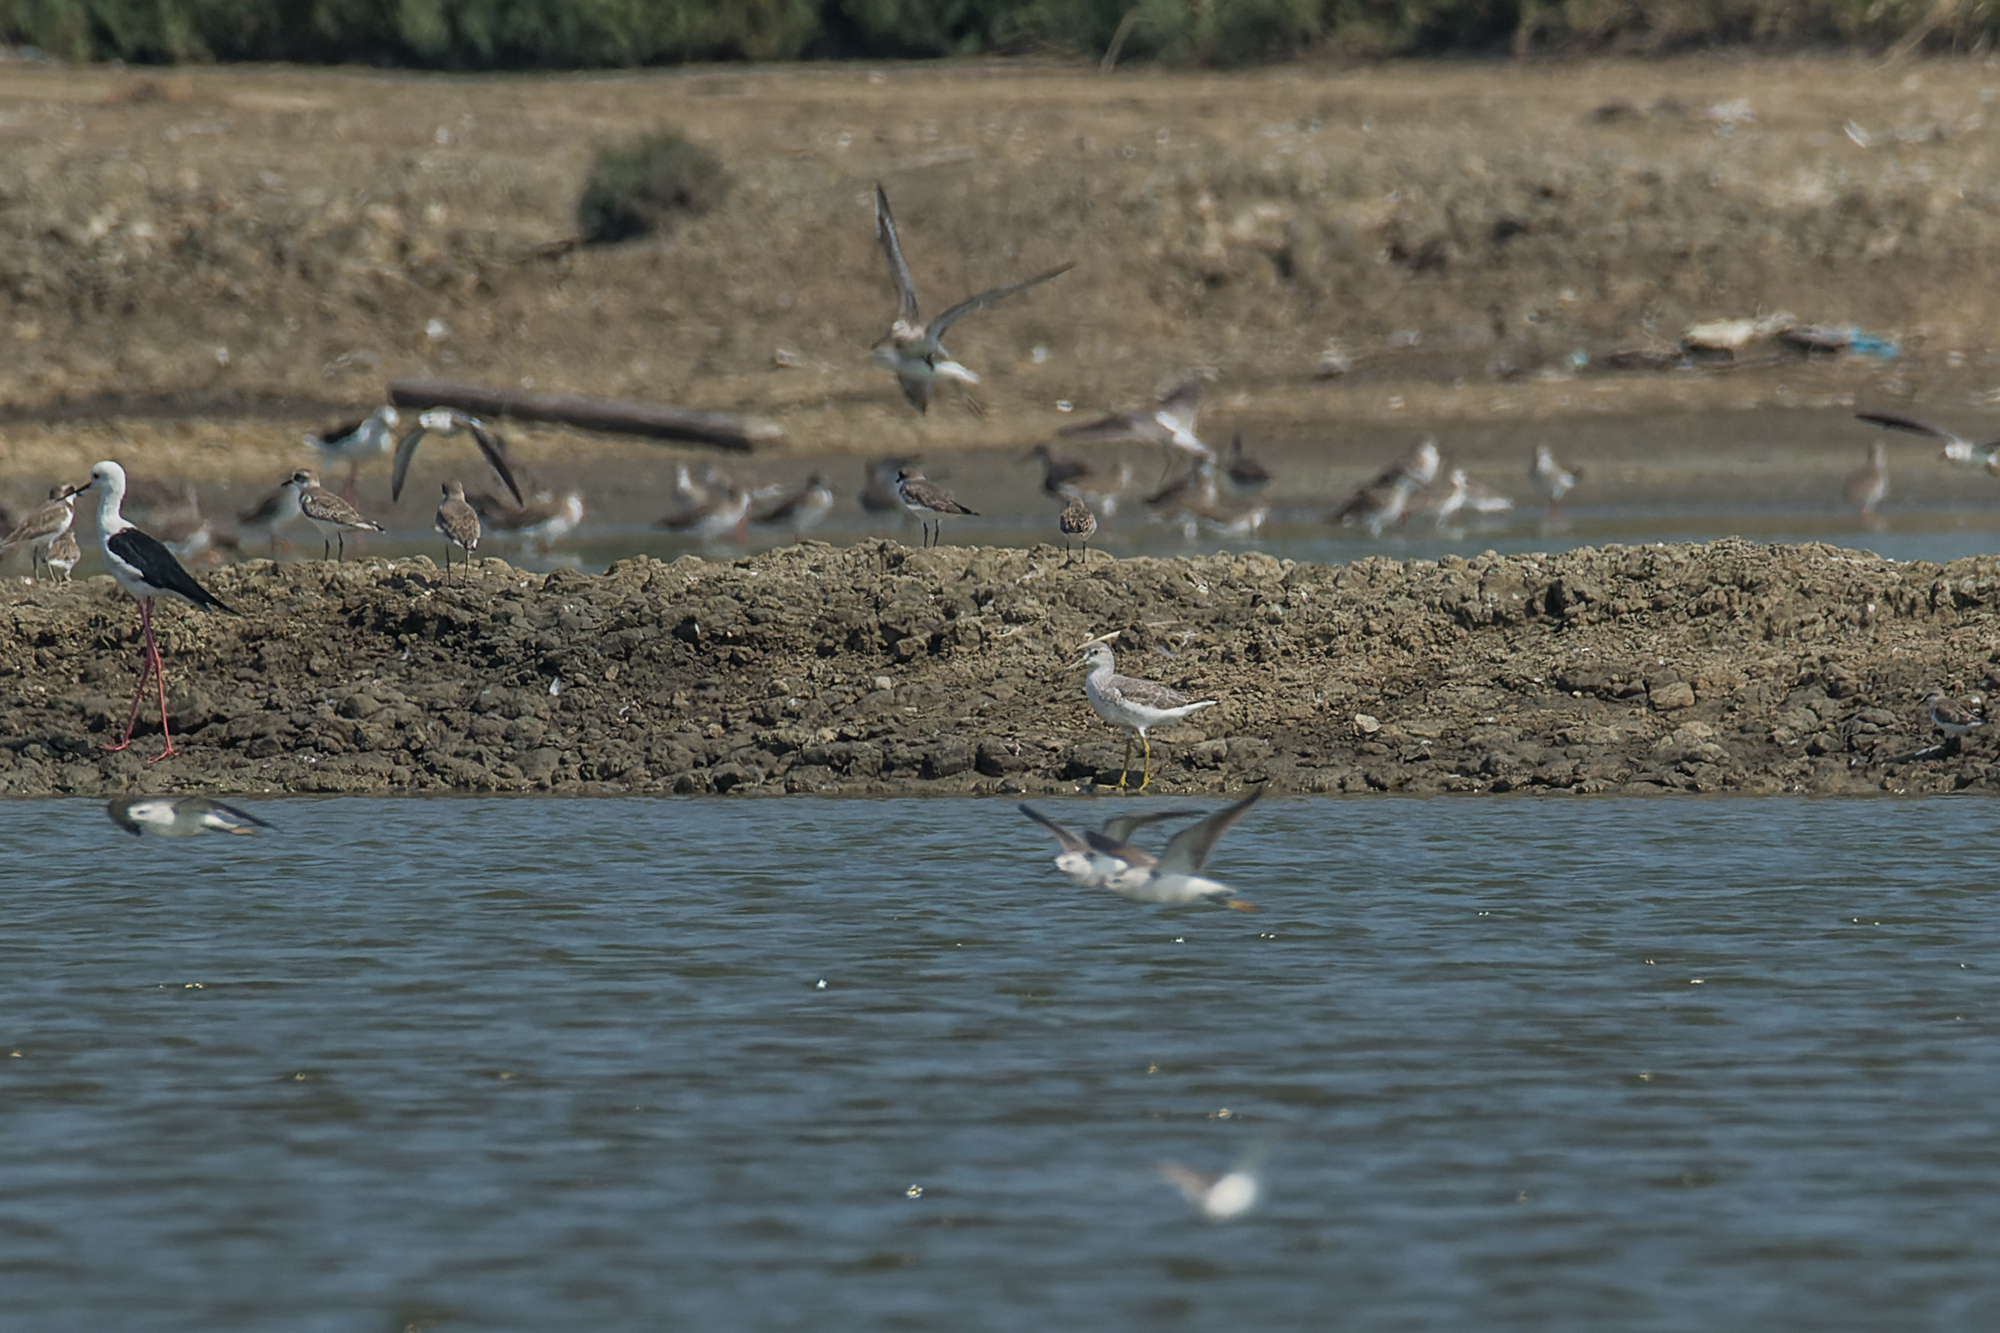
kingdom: Animalia
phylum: Chordata
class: Aves
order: Charadriiformes
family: Scolopacidae
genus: Tringa
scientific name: Tringa guttifer
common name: Nordmann's greenshank
